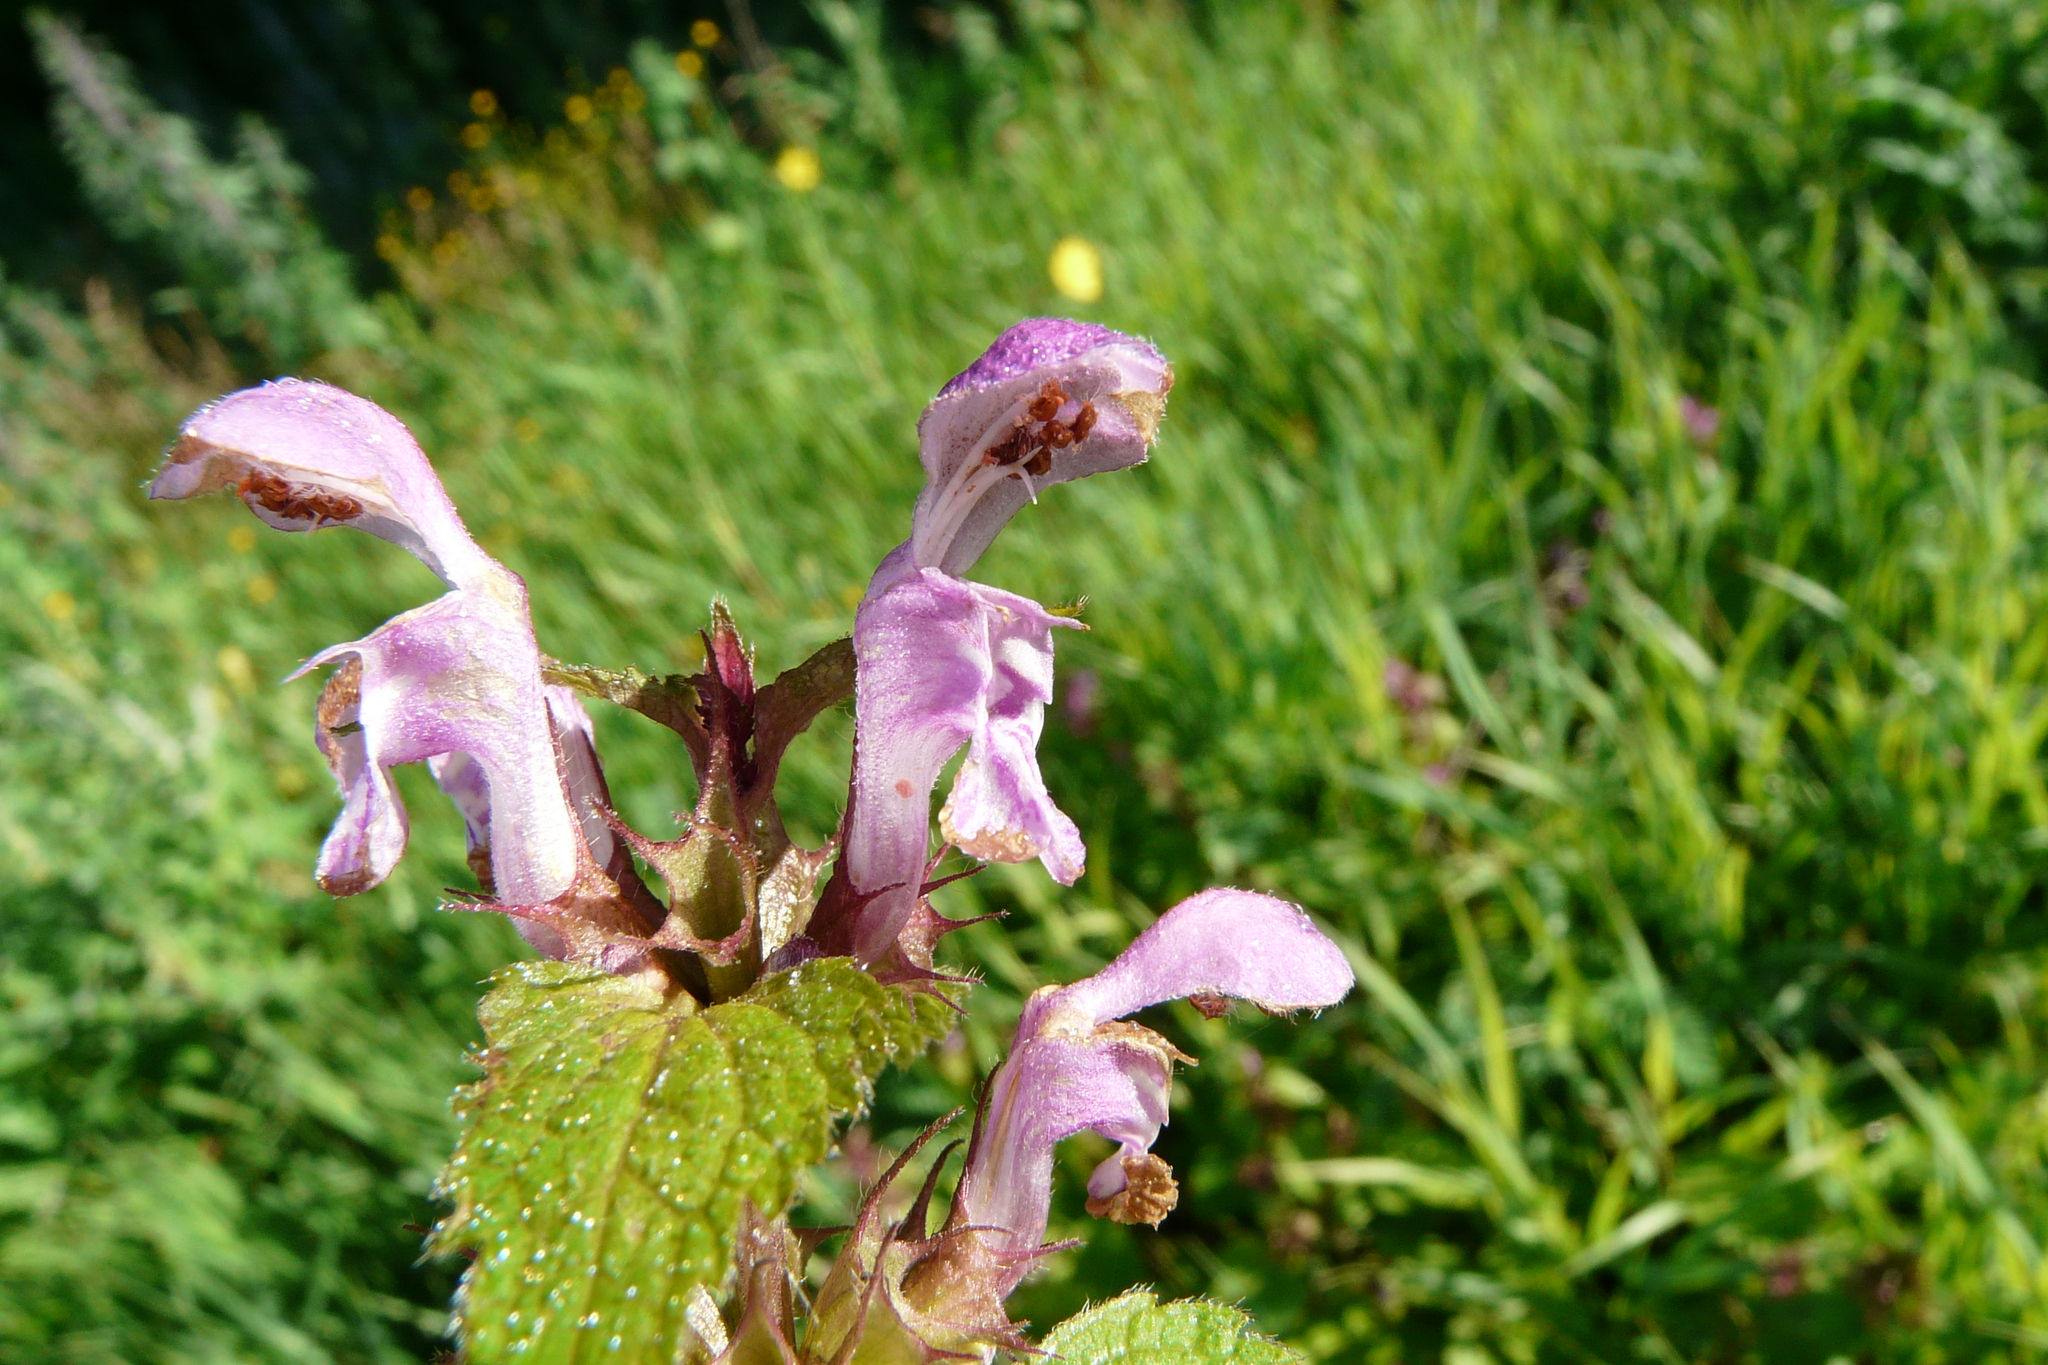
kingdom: Plantae
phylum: Tracheophyta
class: Magnoliopsida
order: Lamiales
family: Lamiaceae
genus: Lamium
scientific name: Lamium maculatum
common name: Spotted dead-nettle
